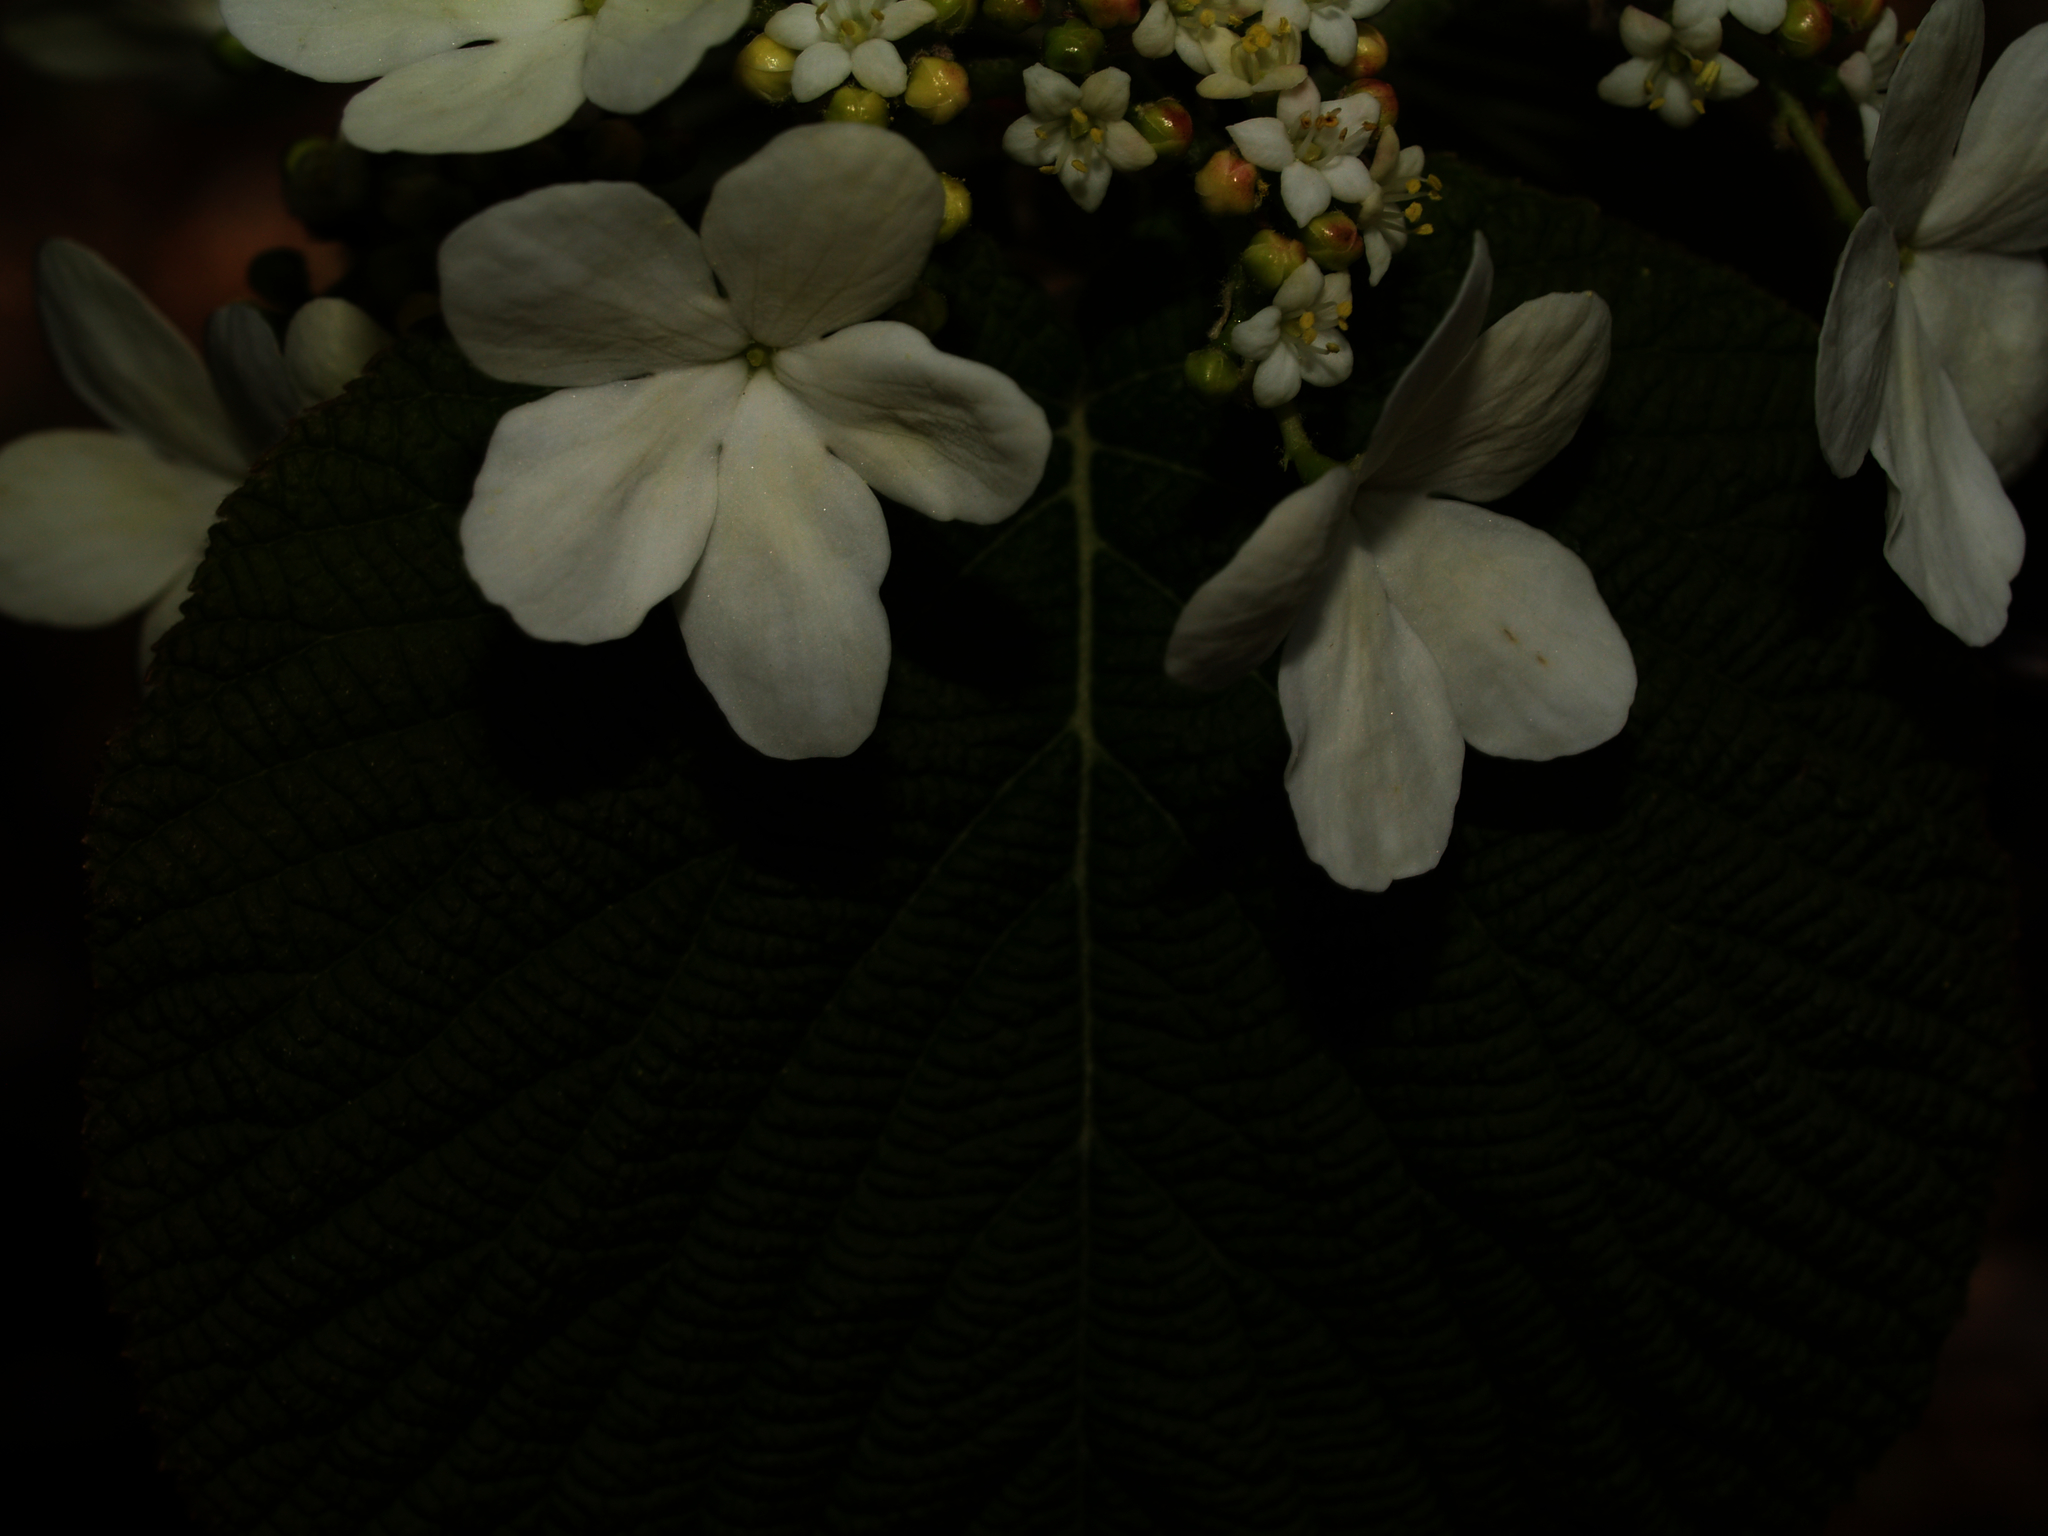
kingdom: Plantae
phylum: Tracheophyta
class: Magnoliopsida
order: Dipsacales
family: Viburnaceae
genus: Viburnum
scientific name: Viburnum lantanoides
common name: Hobblebush
